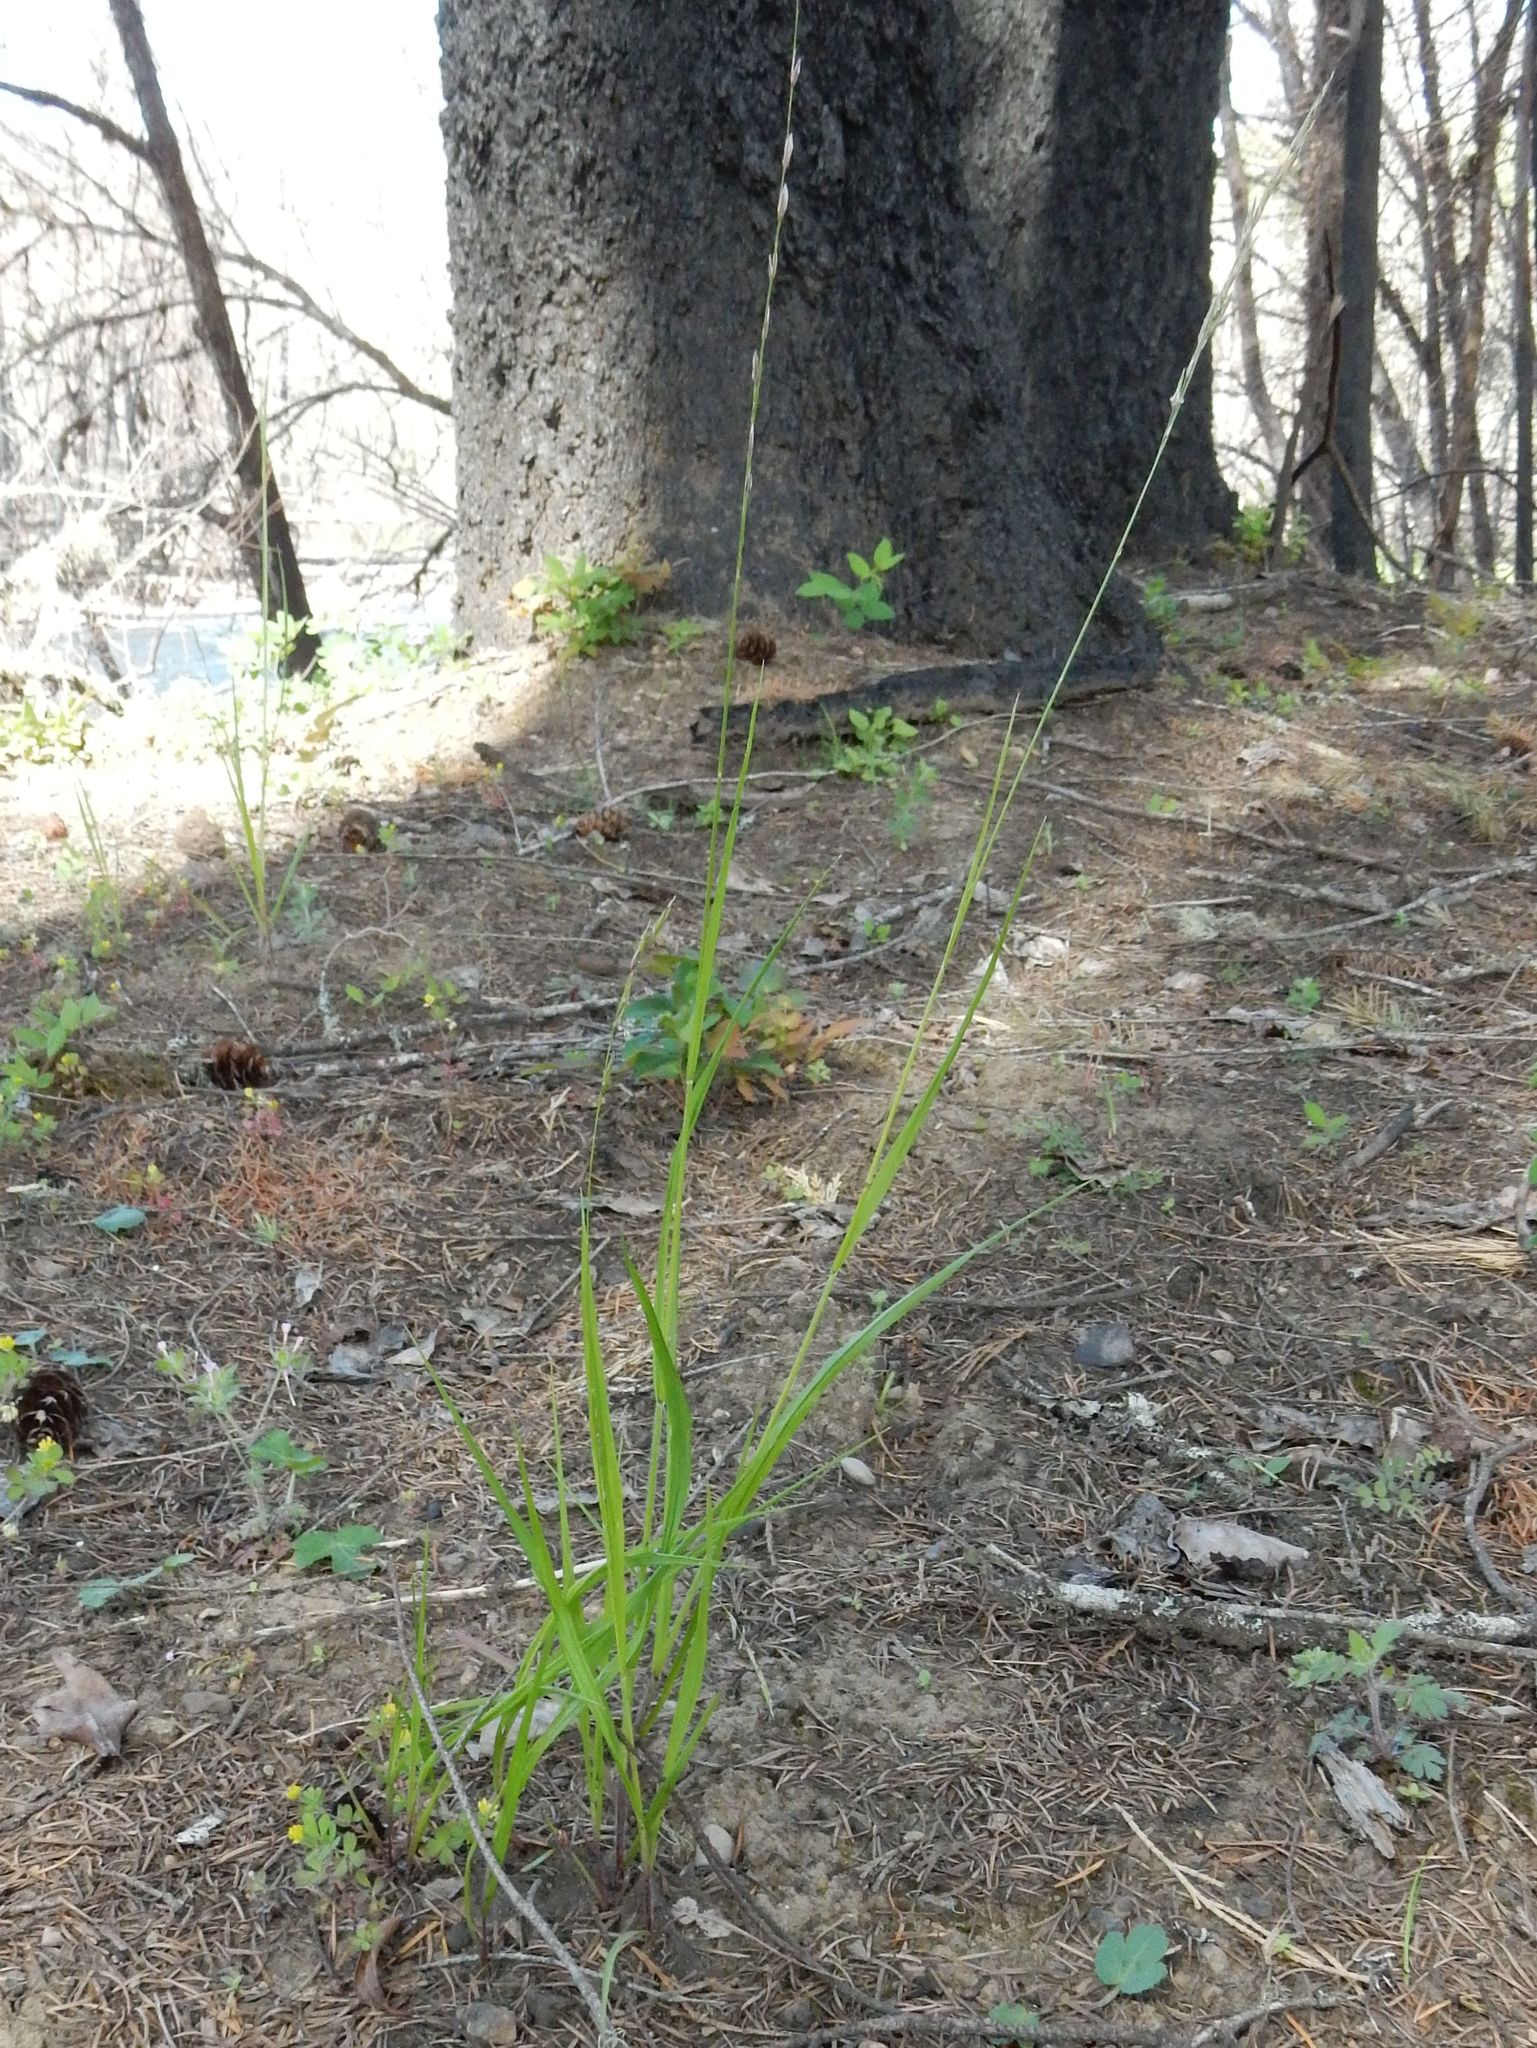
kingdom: Plantae
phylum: Tracheophyta
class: Liliopsida
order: Poales
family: Poaceae
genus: Melica
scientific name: Melica subulata
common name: Tapered oniongrass
